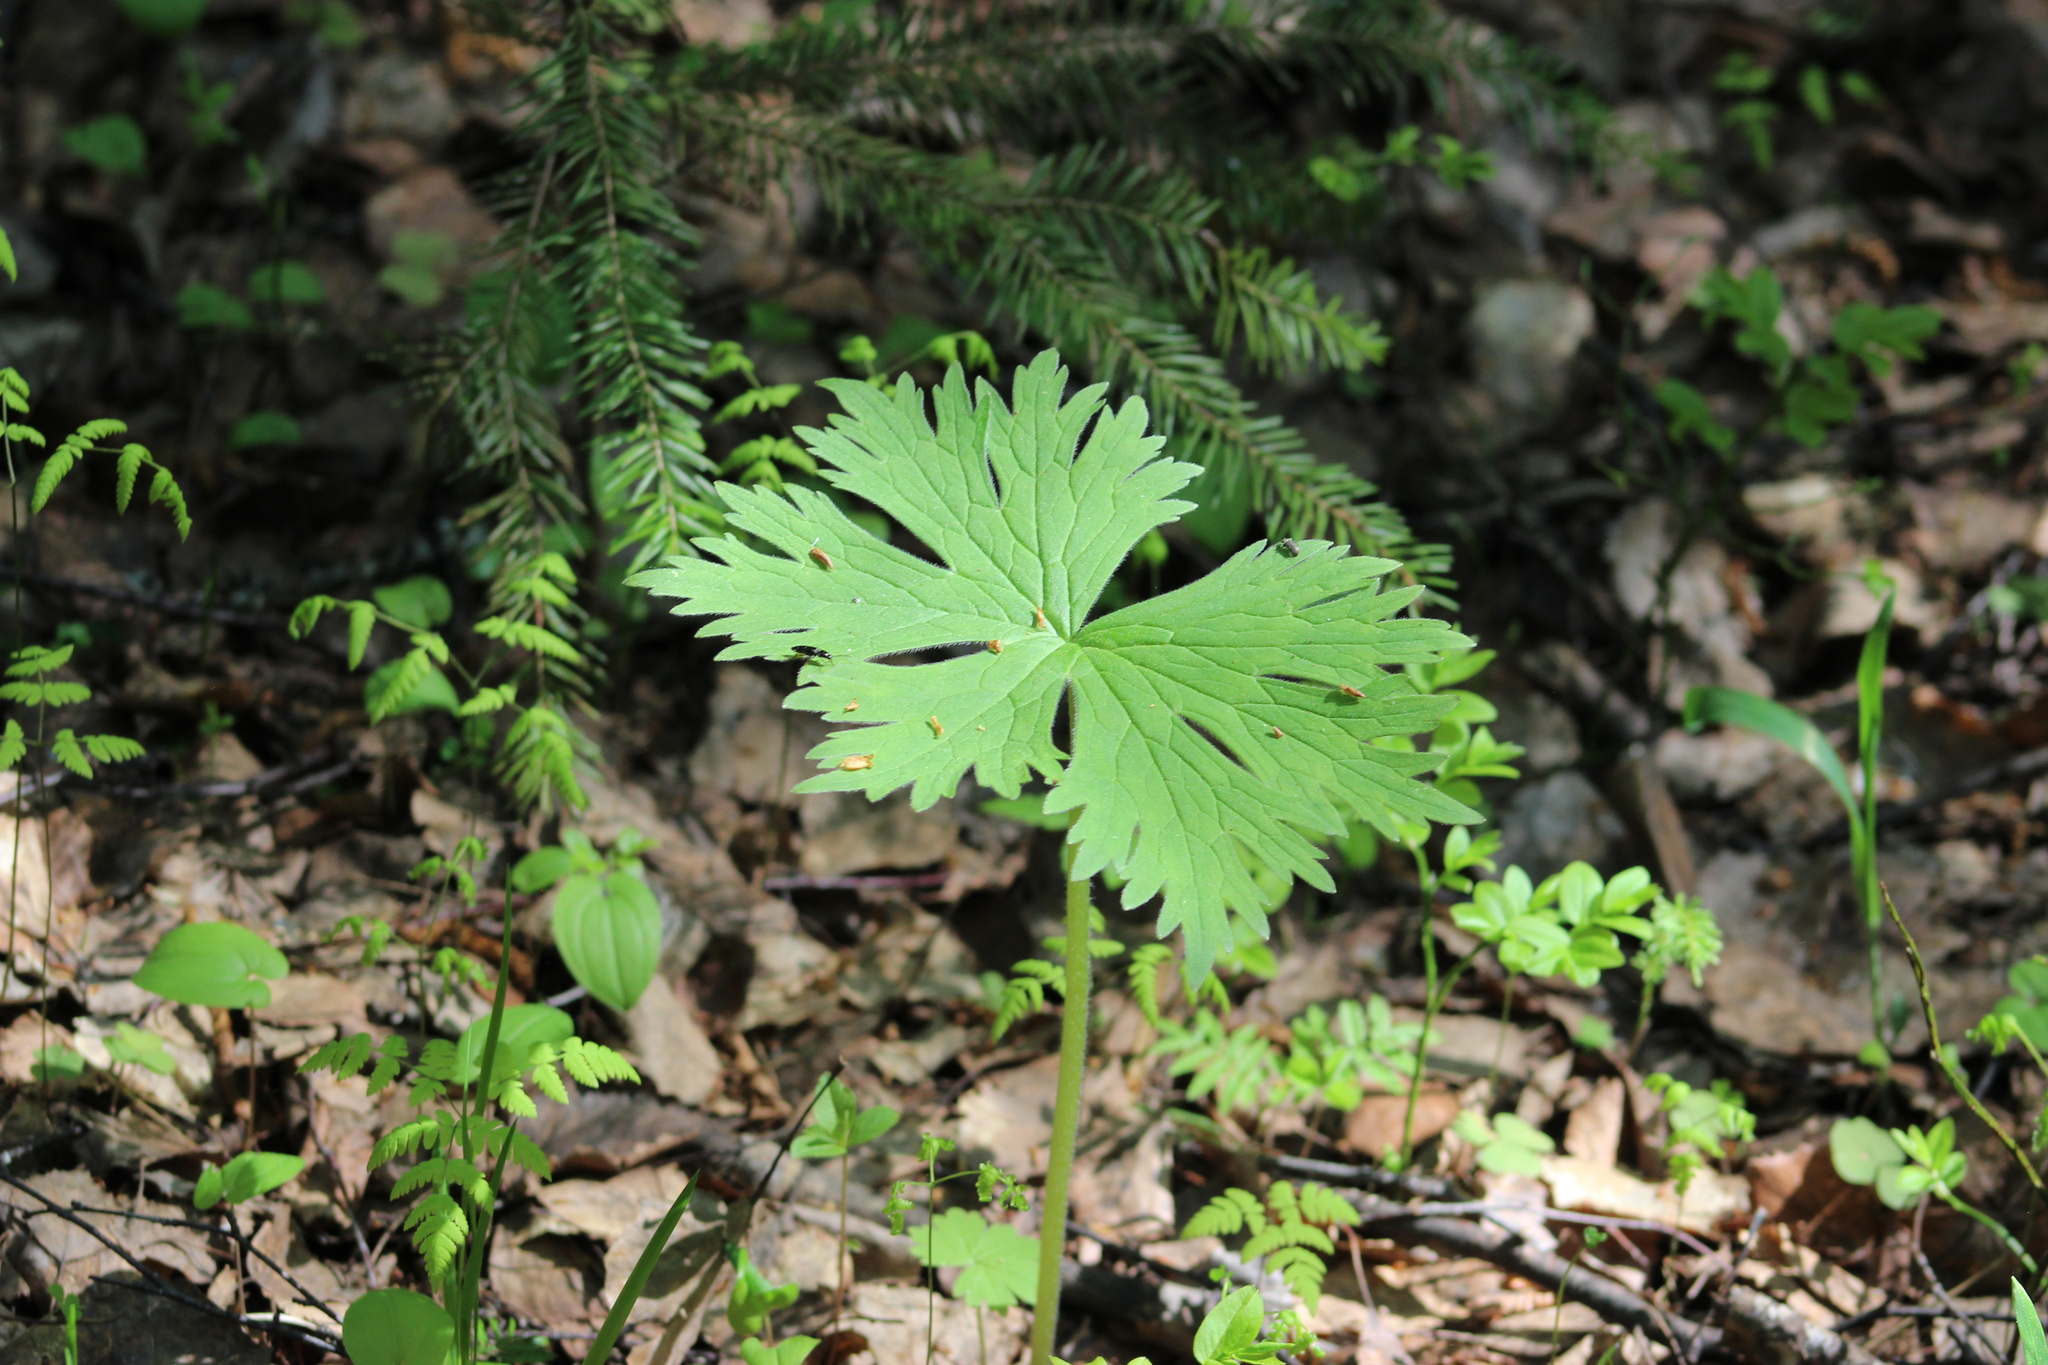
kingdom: Plantae
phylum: Tracheophyta
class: Magnoliopsida
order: Ranunculales
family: Ranunculaceae
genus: Aconitum
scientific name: Aconitum septentrionale
